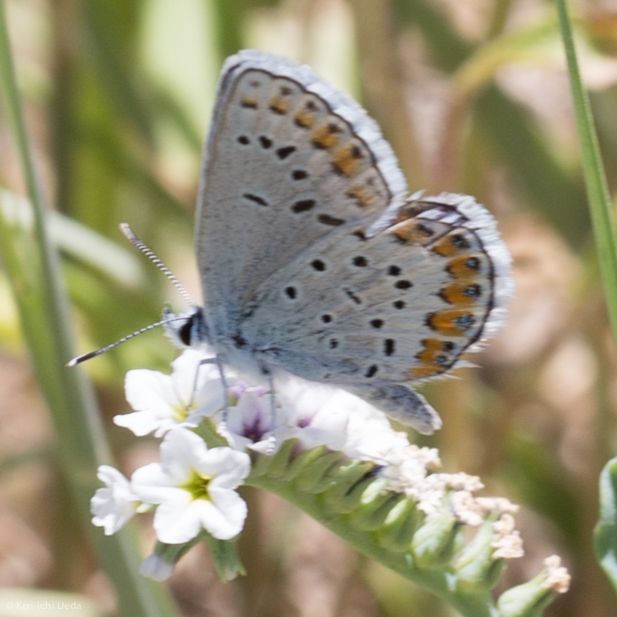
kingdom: Animalia
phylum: Arthropoda
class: Insecta
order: Lepidoptera
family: Lycaenidae
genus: Lycaeides
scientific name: Lycaeides melissa
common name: Melissa blue
